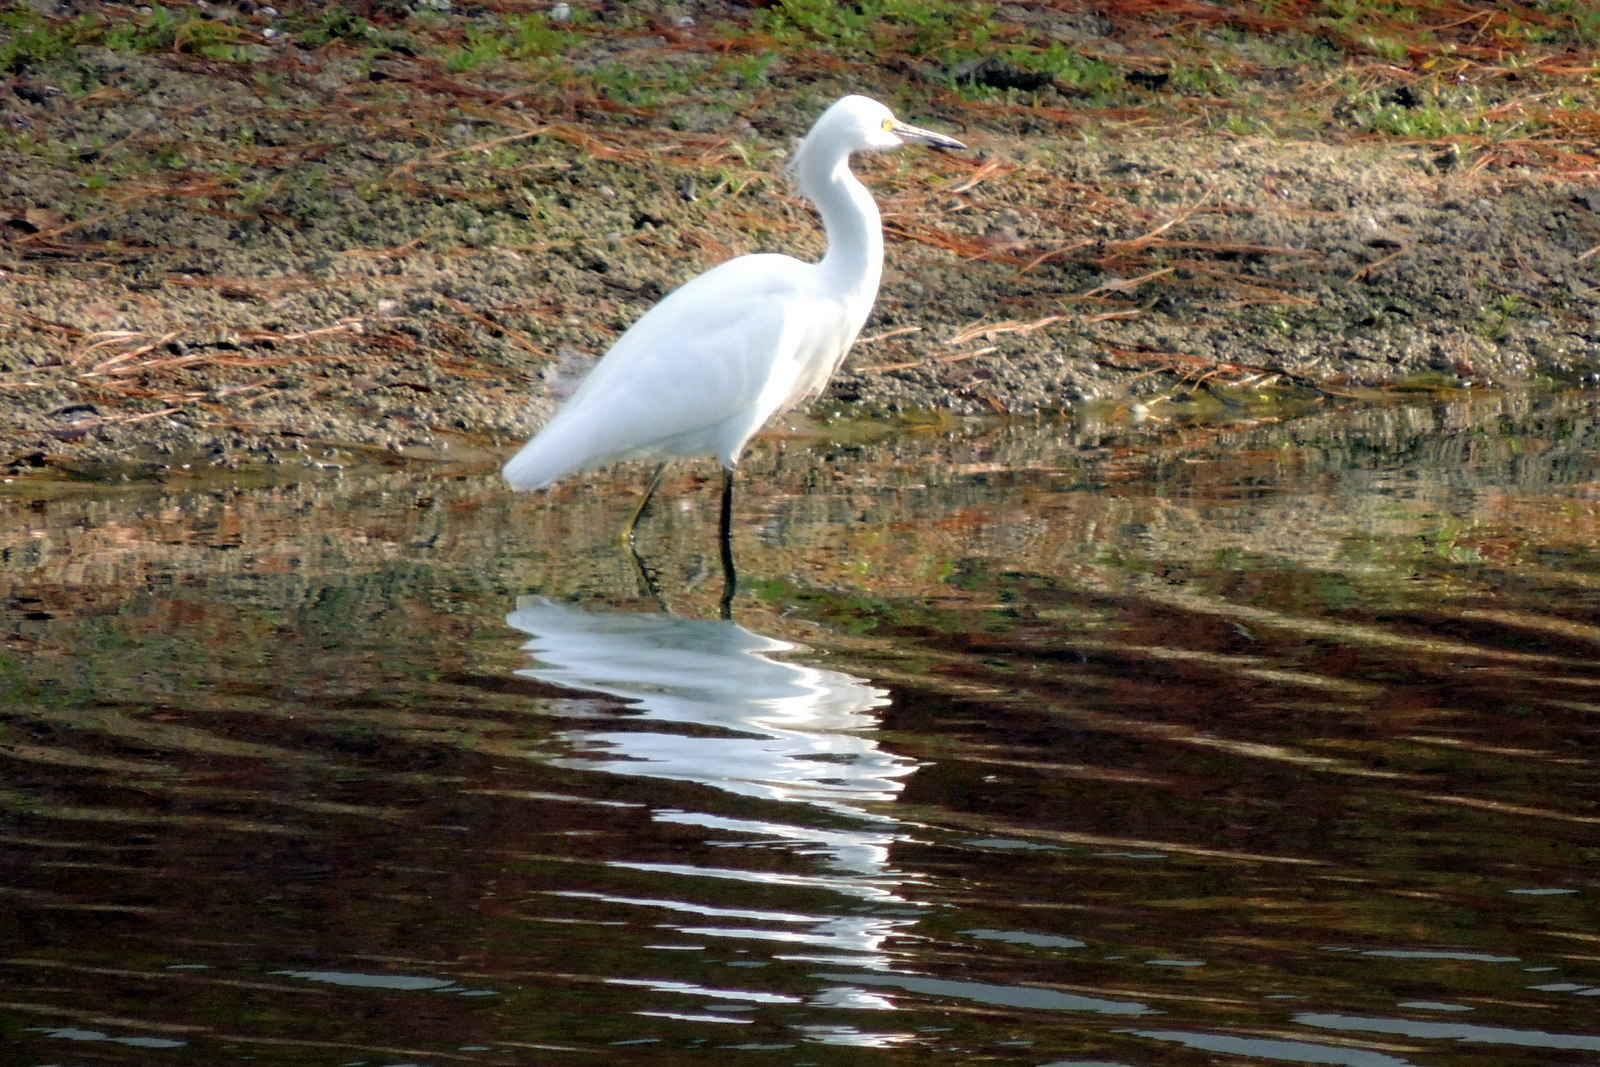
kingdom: Animalia
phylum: Chordata
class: Aves
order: Pelecaniformes
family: Ardeidae
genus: Egretta
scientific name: Egretta thula
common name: Snowy egret
